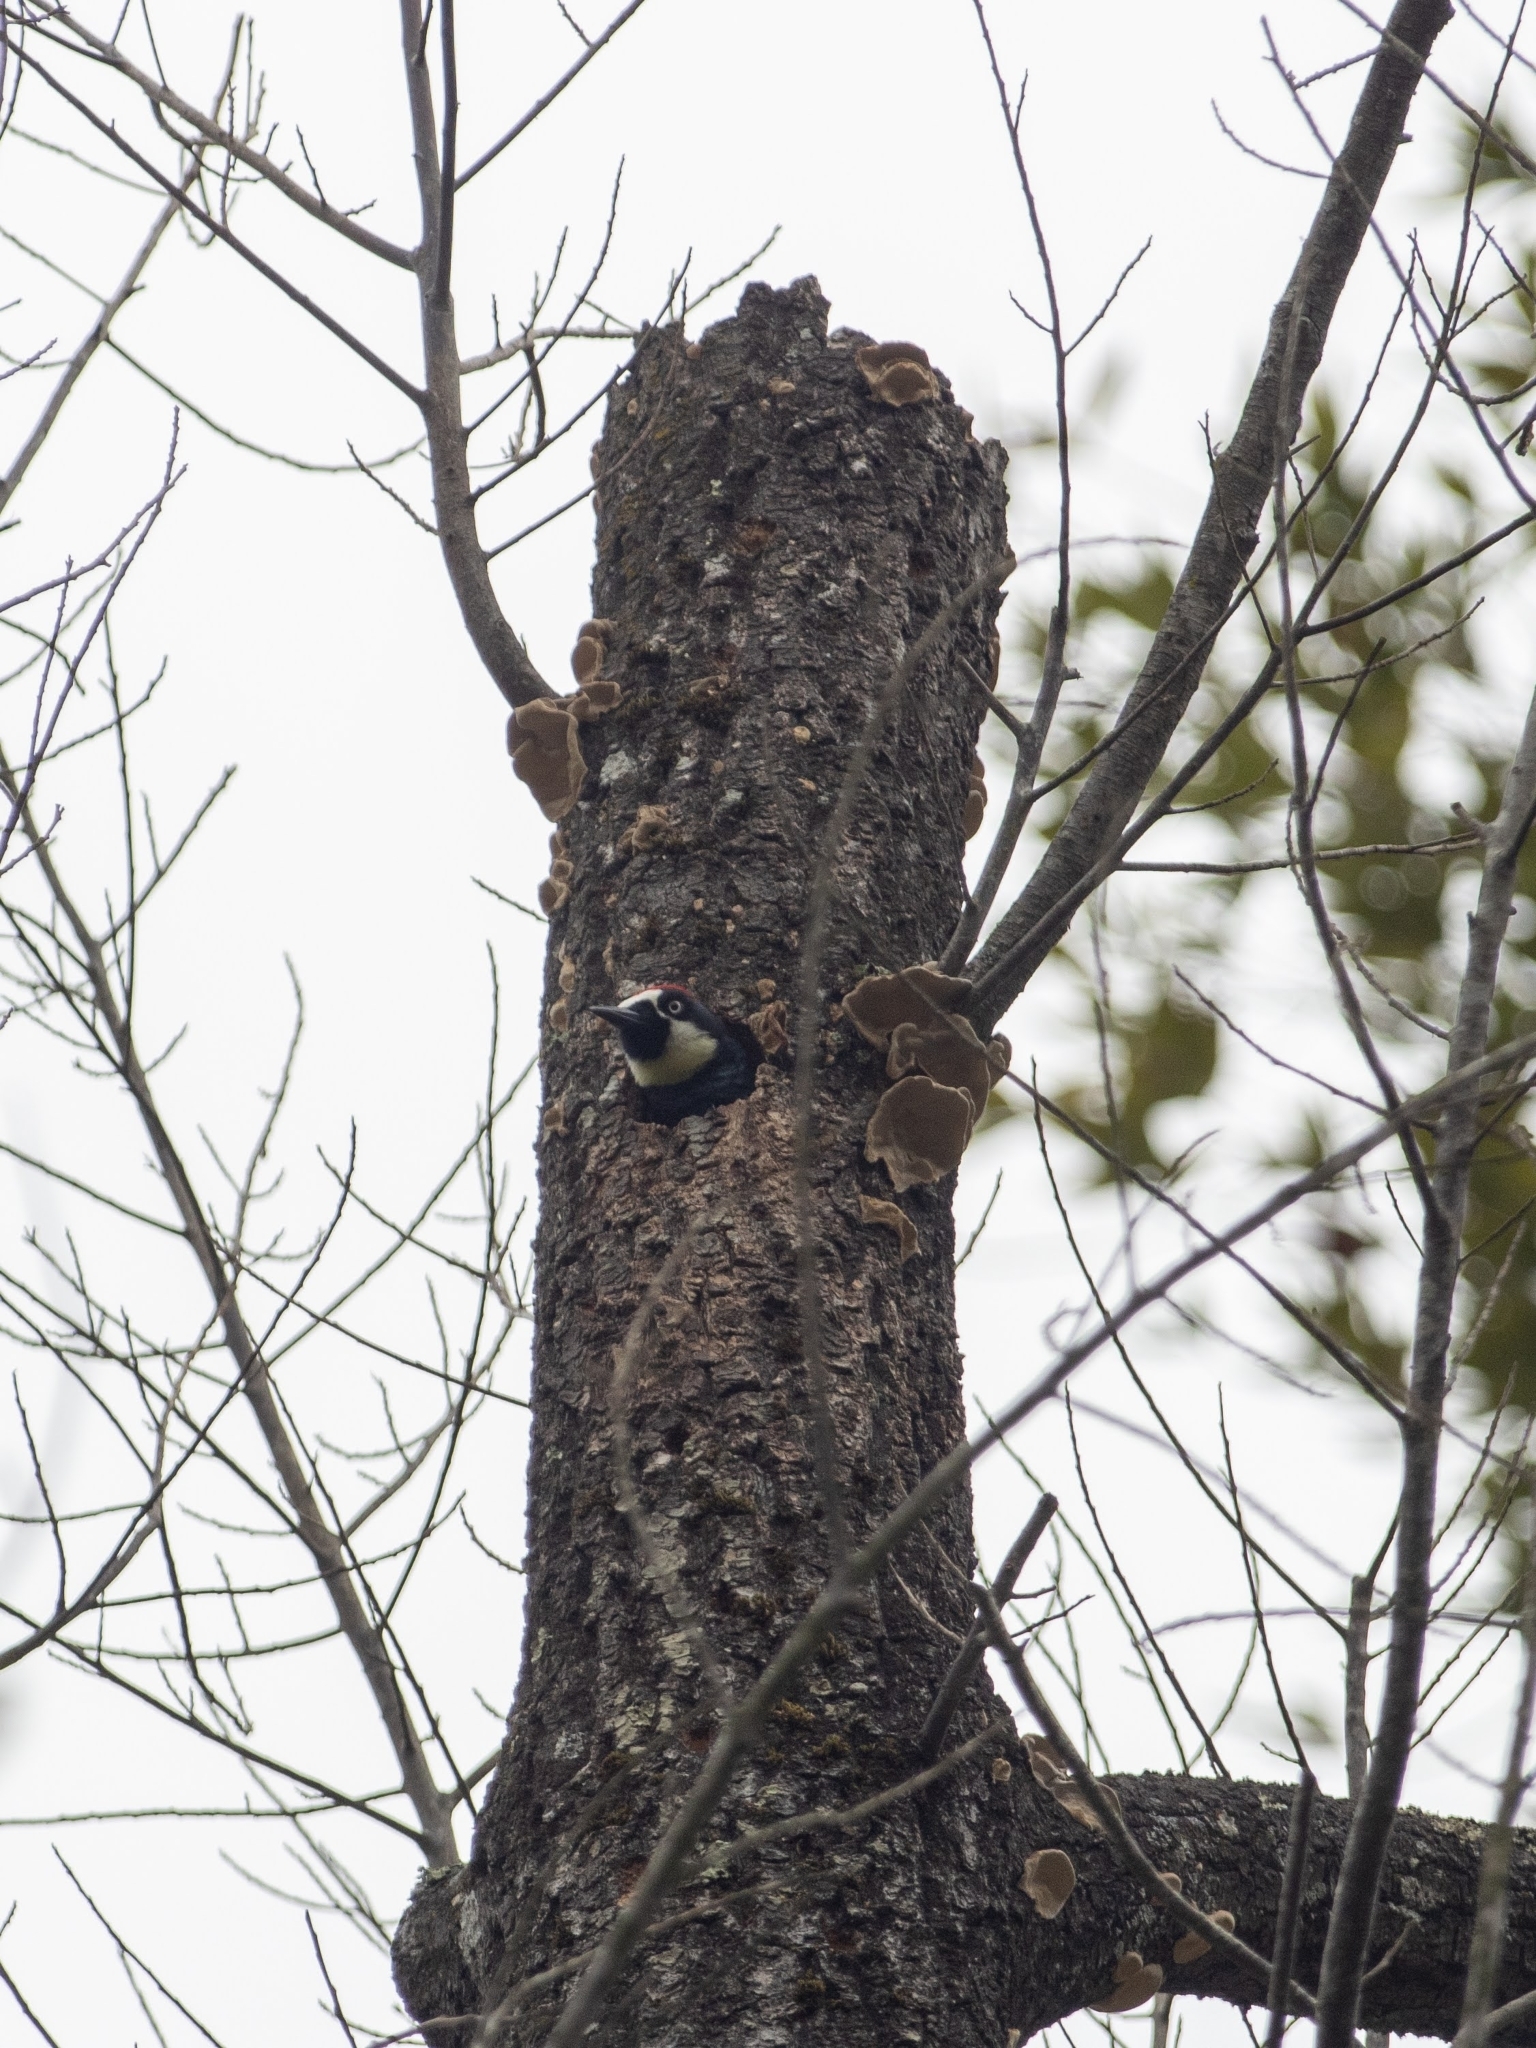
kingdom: Animalia
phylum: Chordata
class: Aves
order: Piciformes
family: Picidae
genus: Melanerpes
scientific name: Melanerpes formicivorus
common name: Acorn woodpecker
